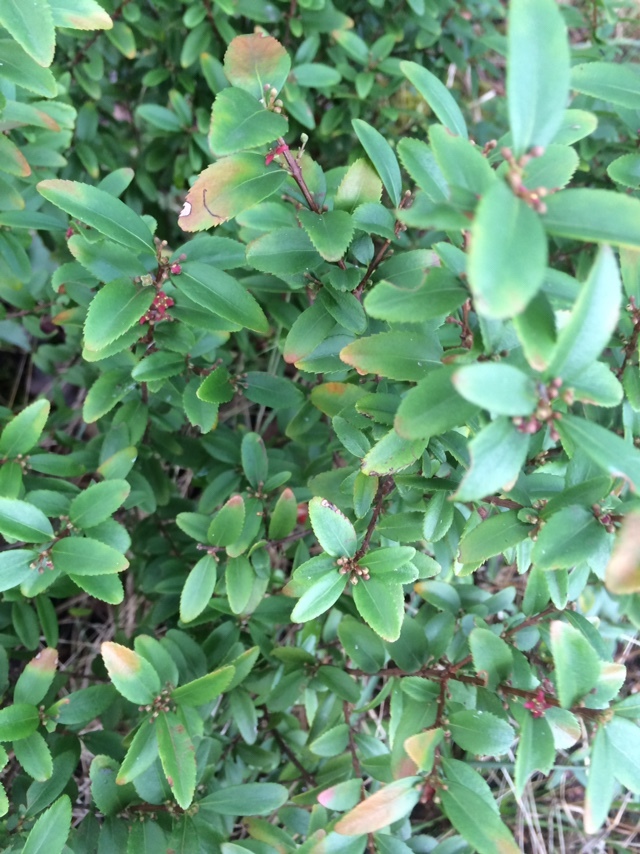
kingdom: Plantae
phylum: Tracheophyta
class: Magnoliopsida
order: Celastrales
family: Celastraceae
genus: Paxistima
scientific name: Paxistima myrsinites
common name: Mountain-lover
